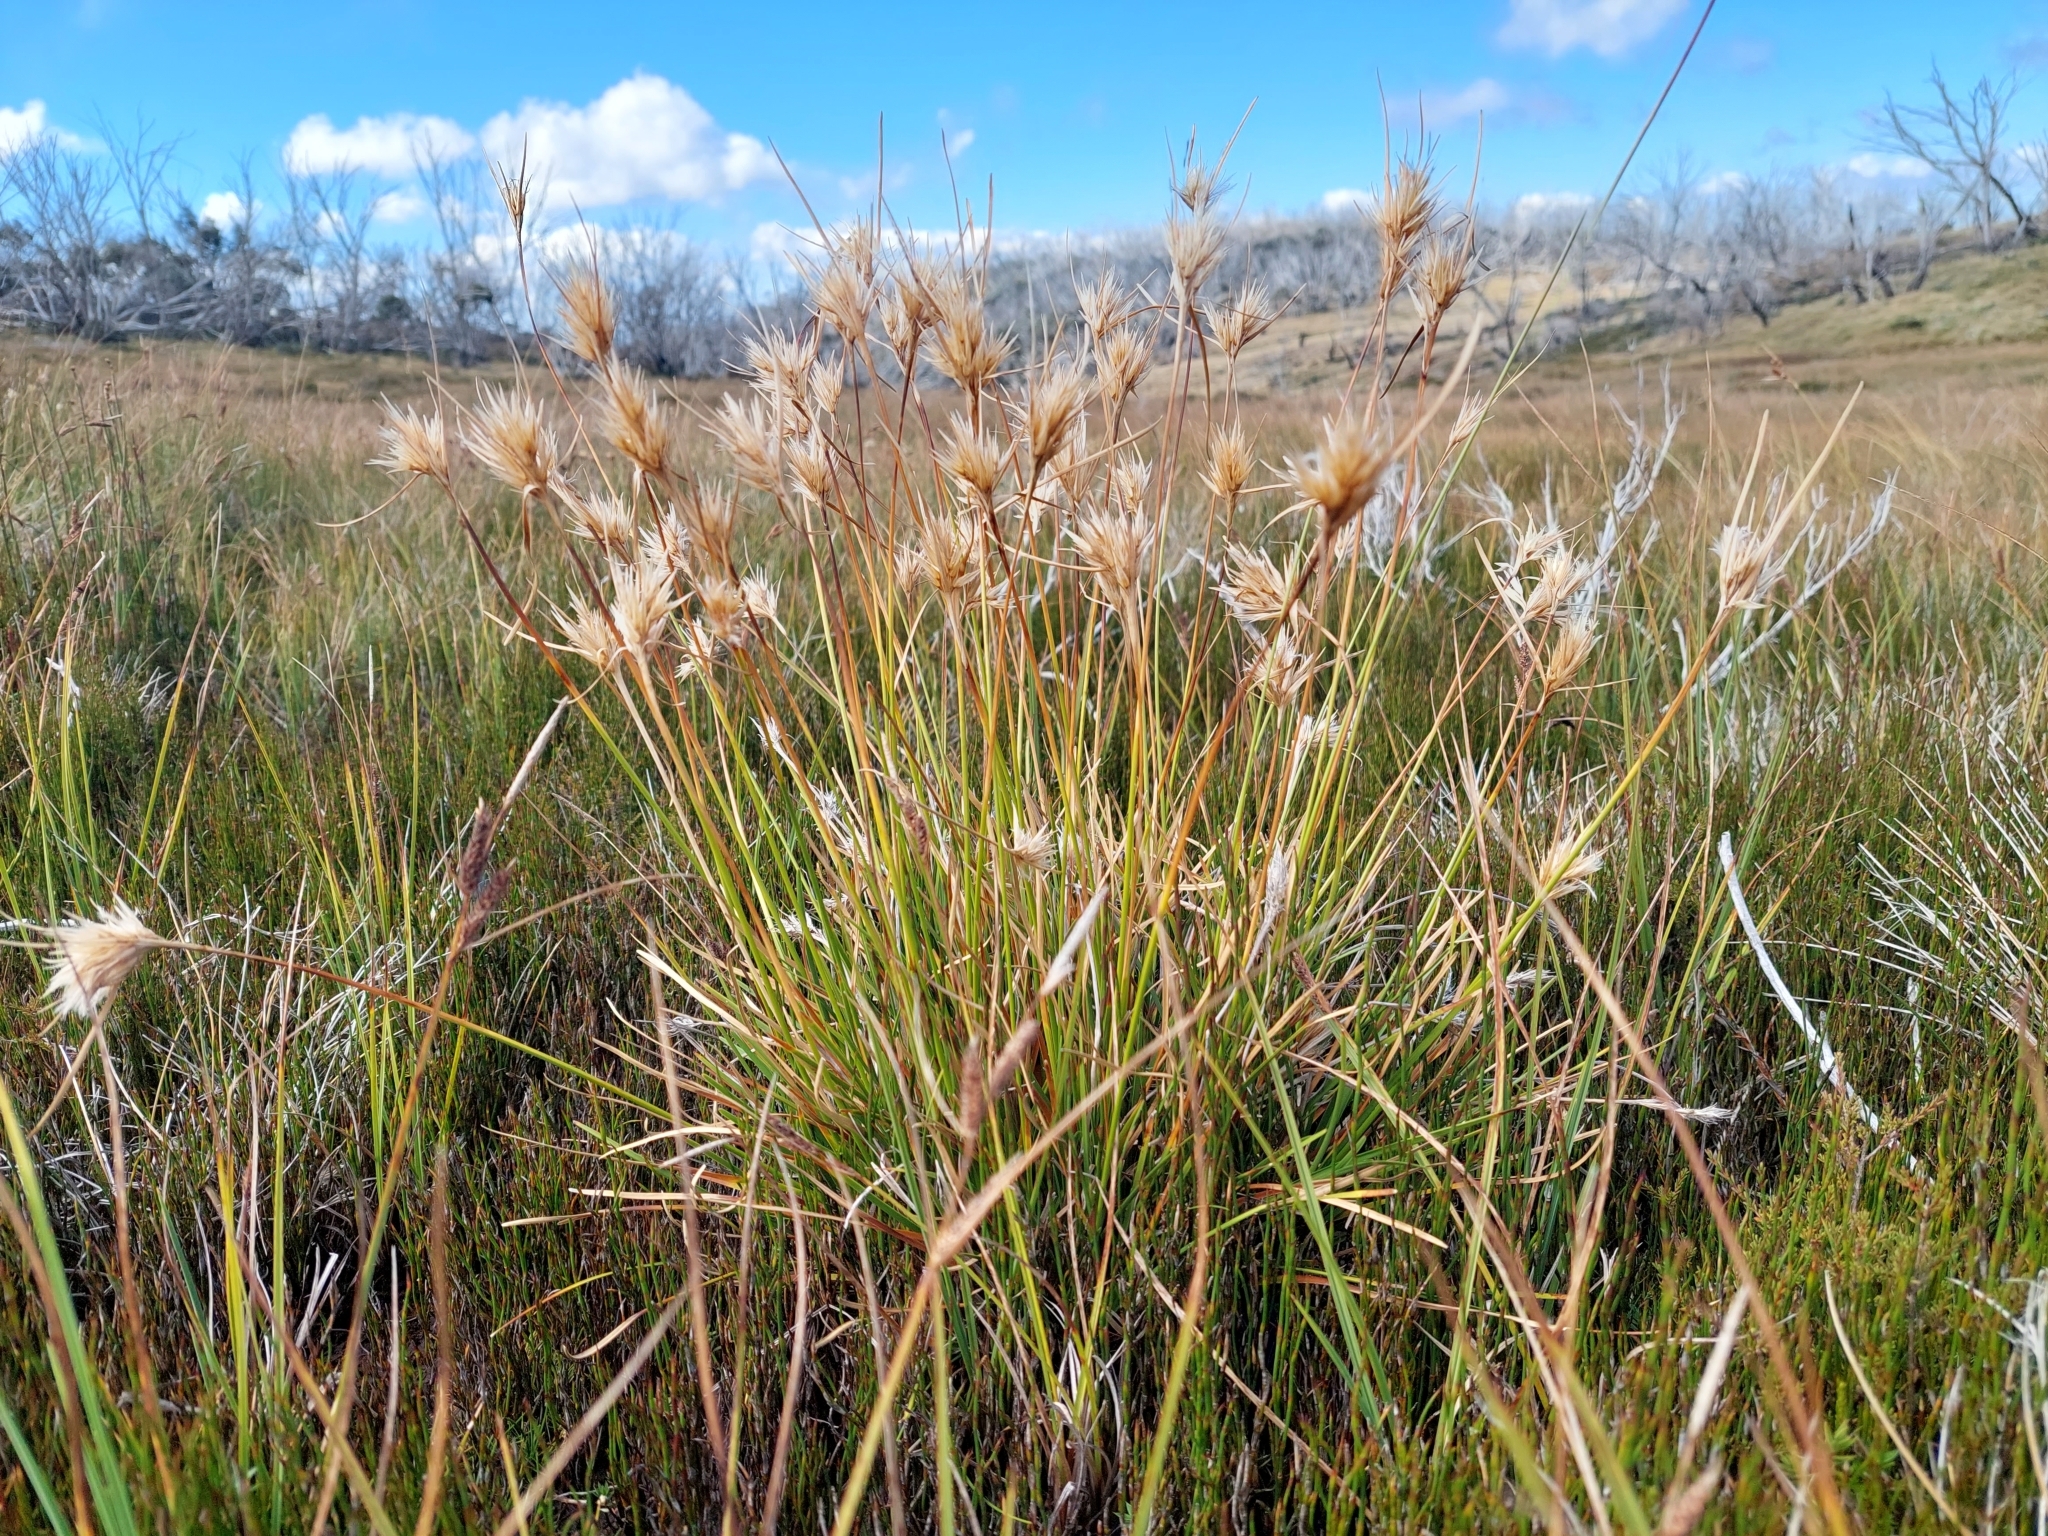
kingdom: Plantae
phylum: Tracheophyta
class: Liliopsida
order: Poales
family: Cyperaceae
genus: Carpha
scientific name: Carpha nivicola
